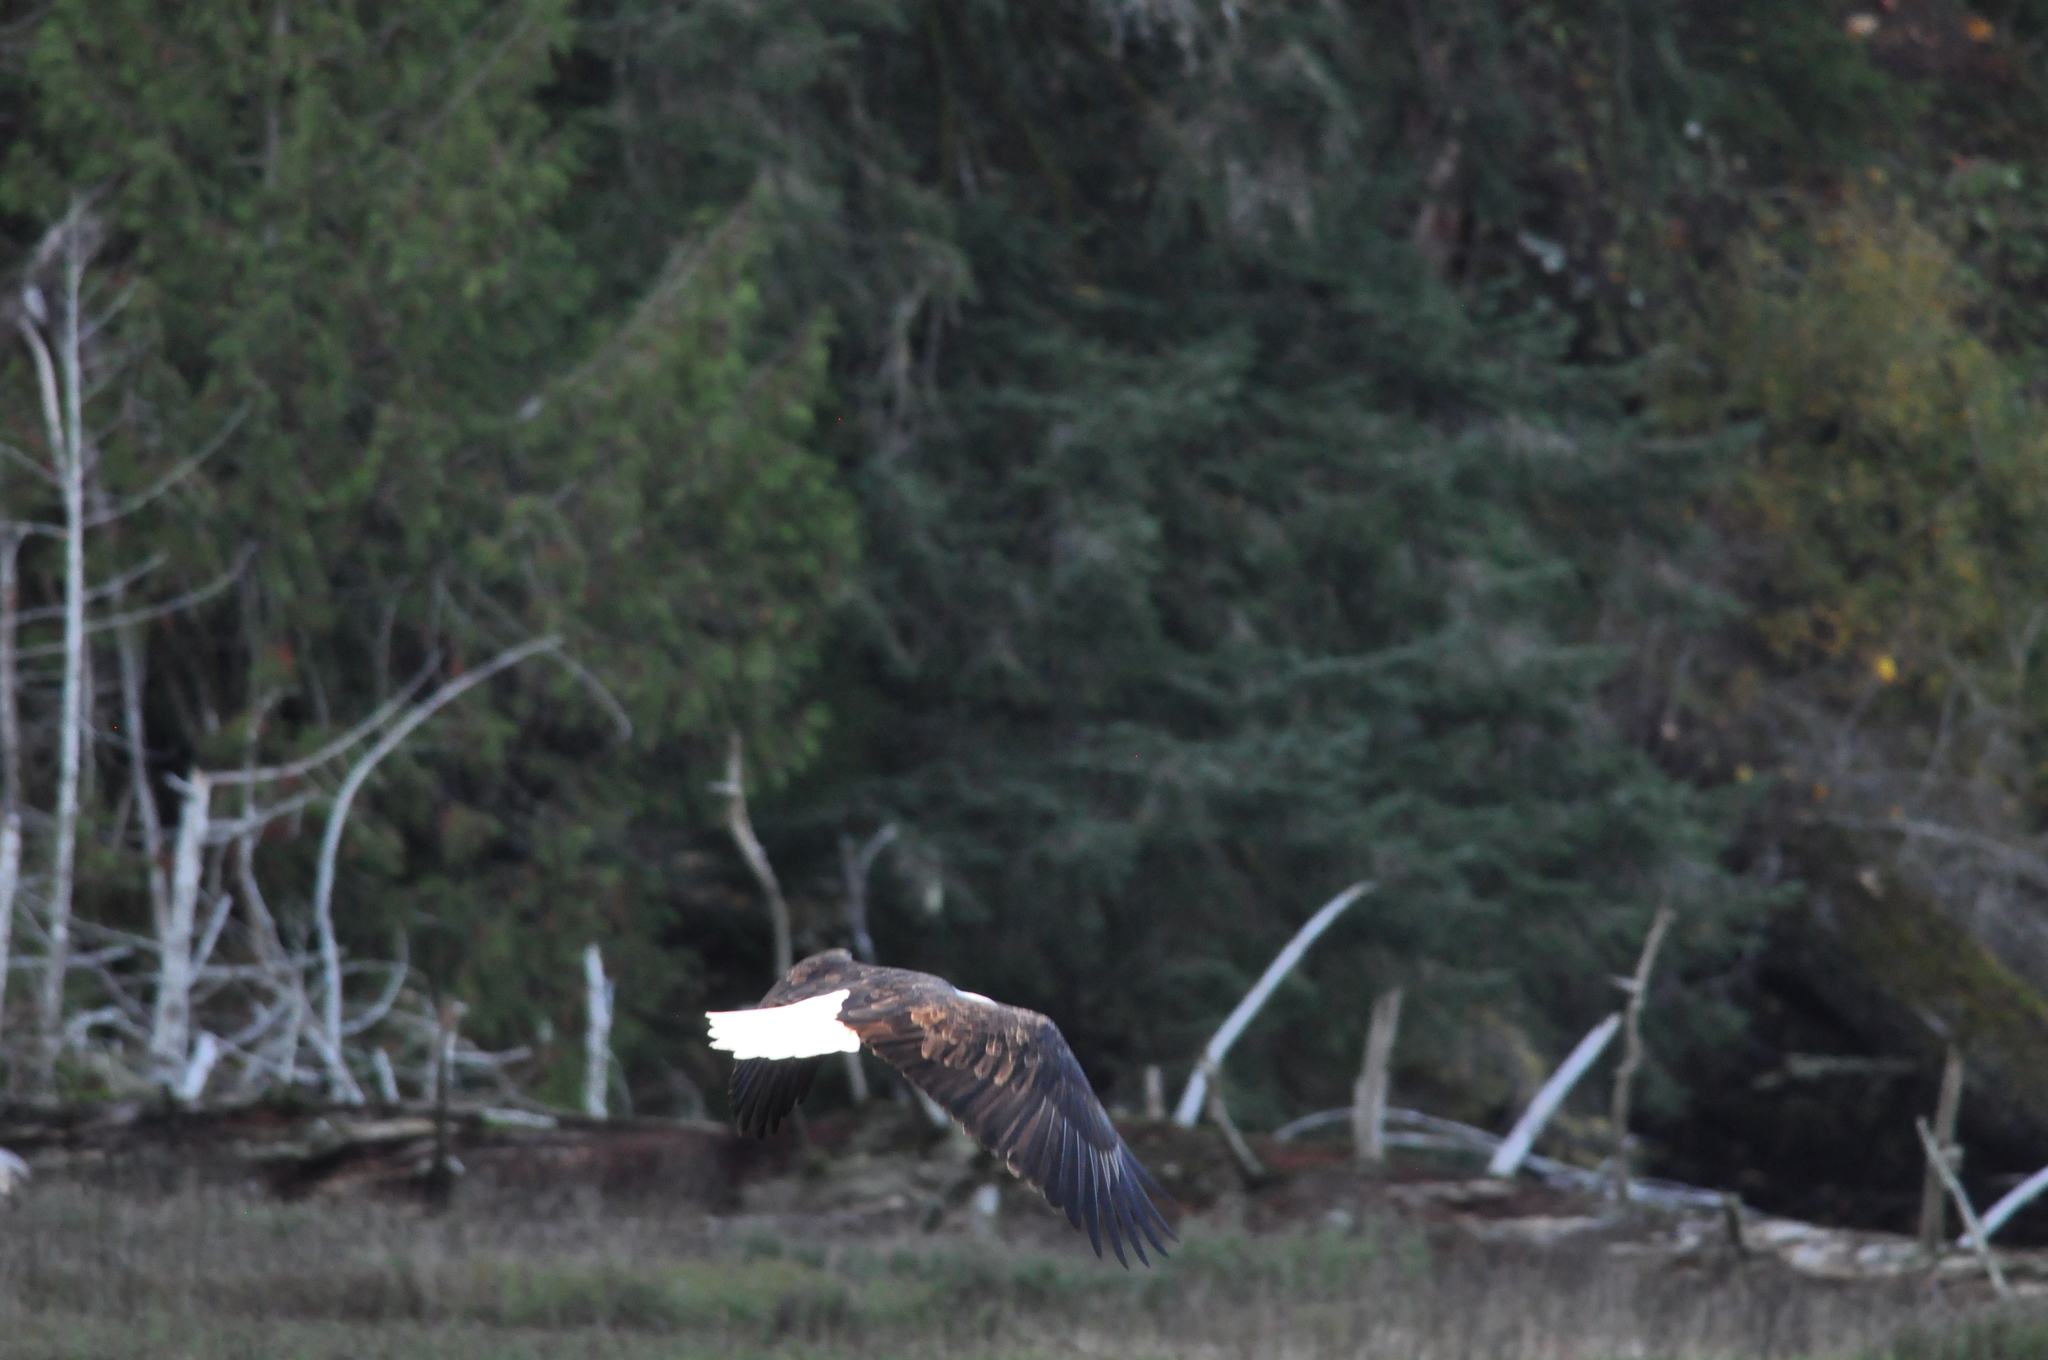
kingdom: Animalia
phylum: Chordata
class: Aves
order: Accipitriformes
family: Accipitridae
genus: Haliaeetus
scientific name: Haliaeetus leucocephalus
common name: Bald eagle
